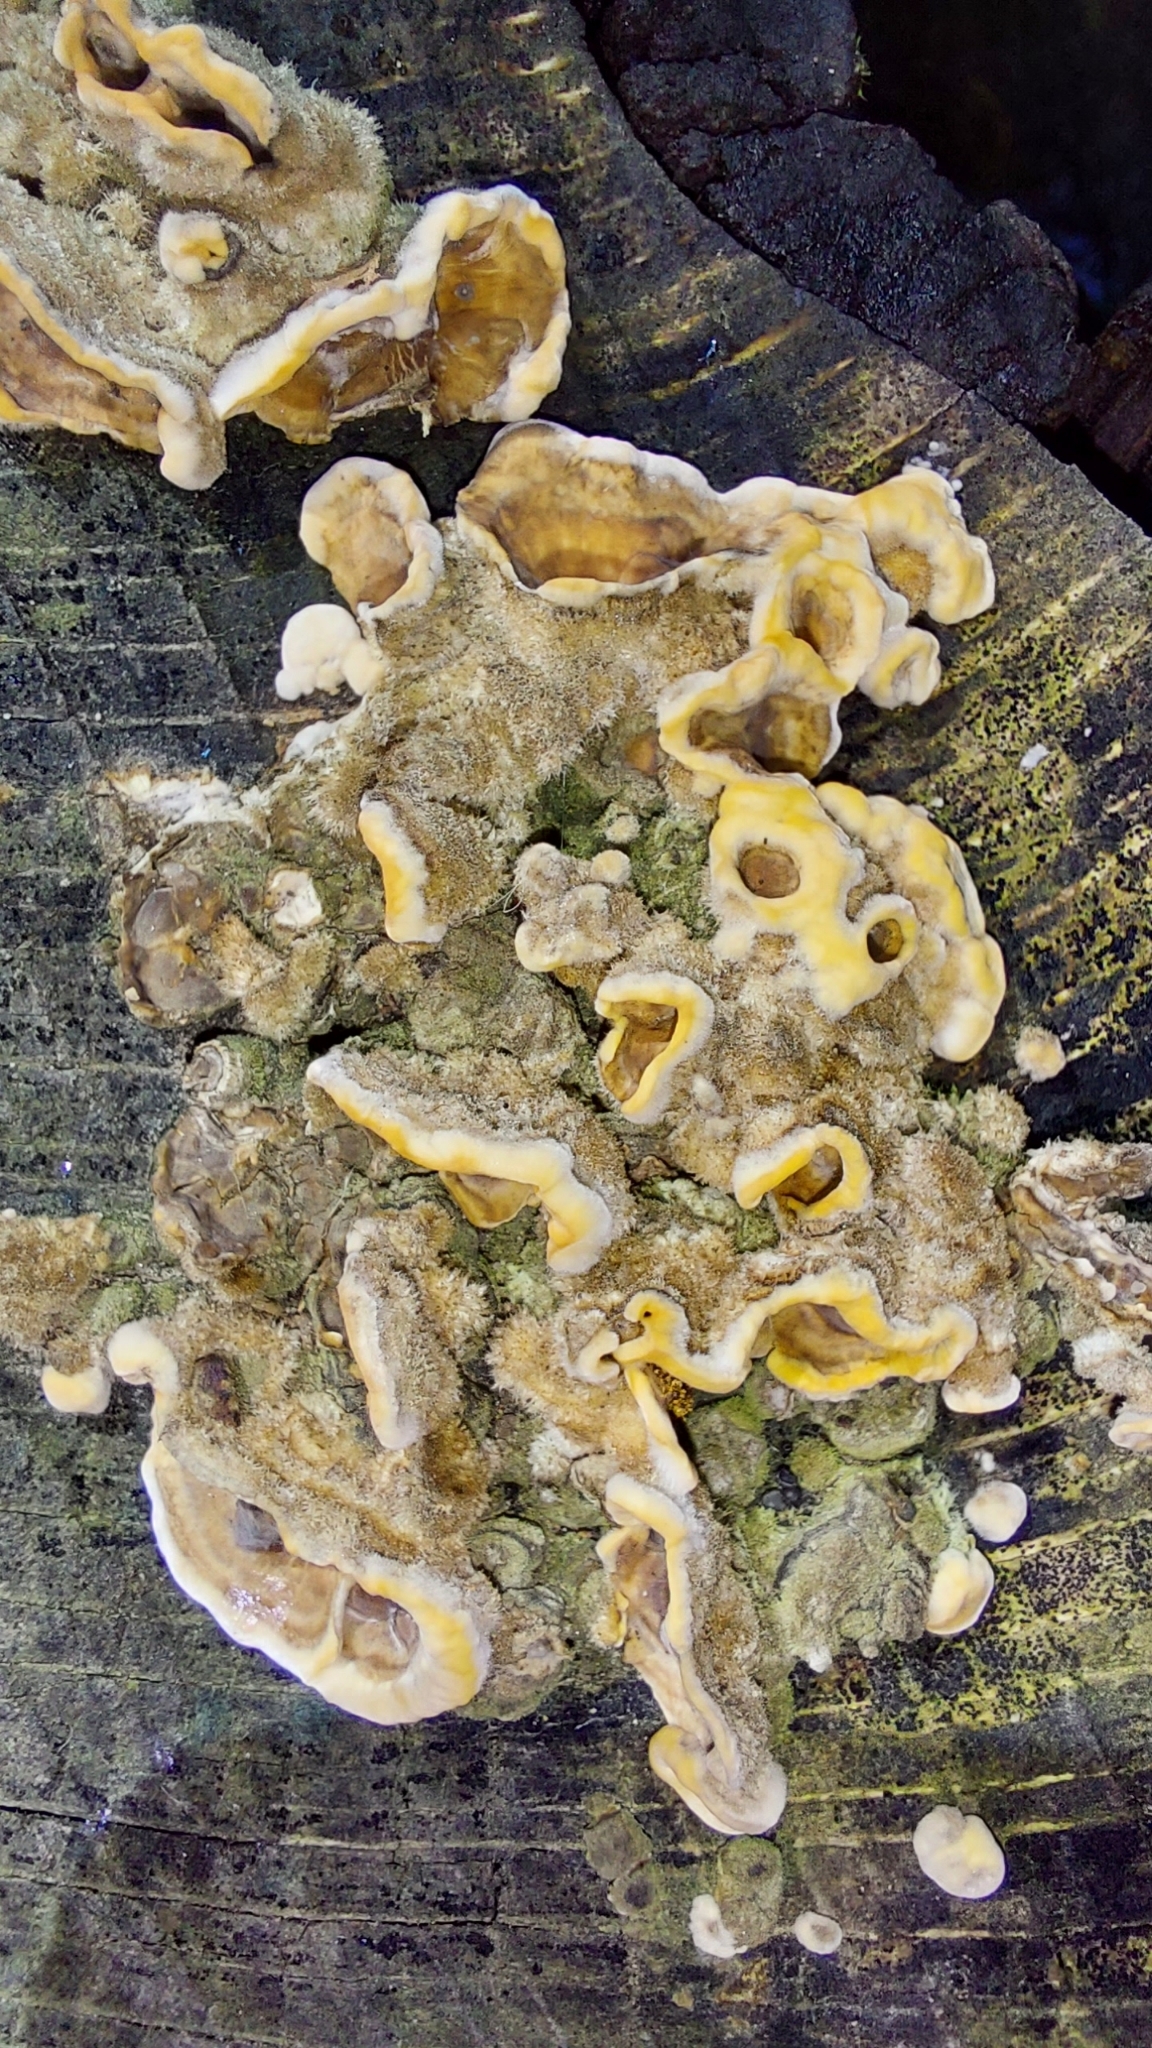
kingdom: Fungi
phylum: Basidiomycota
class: Agaricomycetes
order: Russulales
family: Stereaceae
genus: Stereum
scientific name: Stereum hirsutum
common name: Hairy curtain crust
